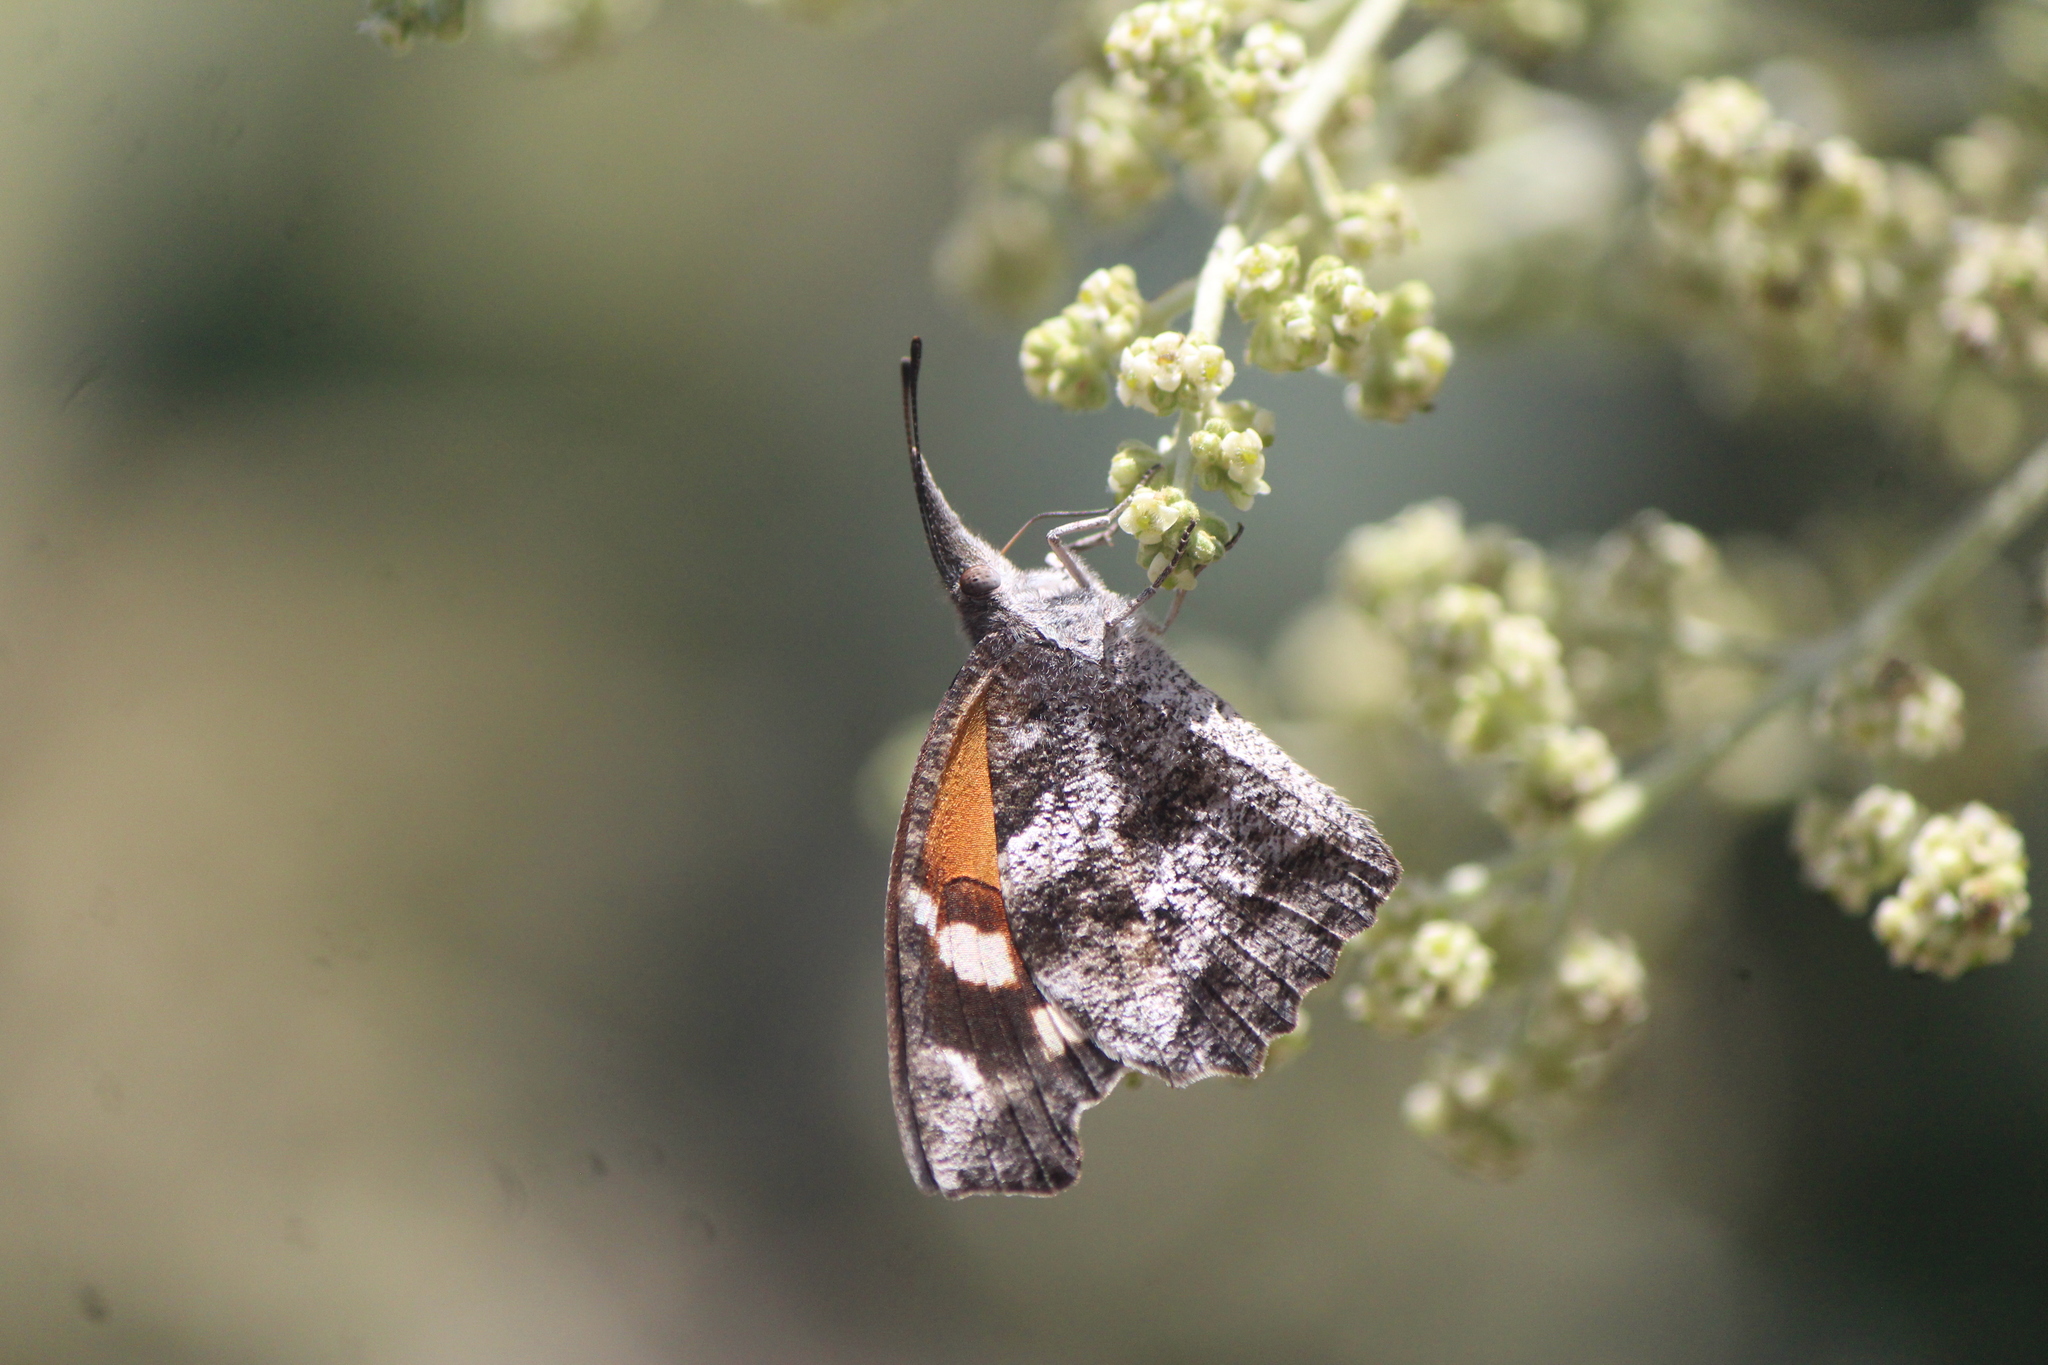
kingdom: Animalia
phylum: Arthropoda
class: Insecta
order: Lepidoptera
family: Nymphalidae
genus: Libytheana
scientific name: Libytheana carinenta
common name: American snout
